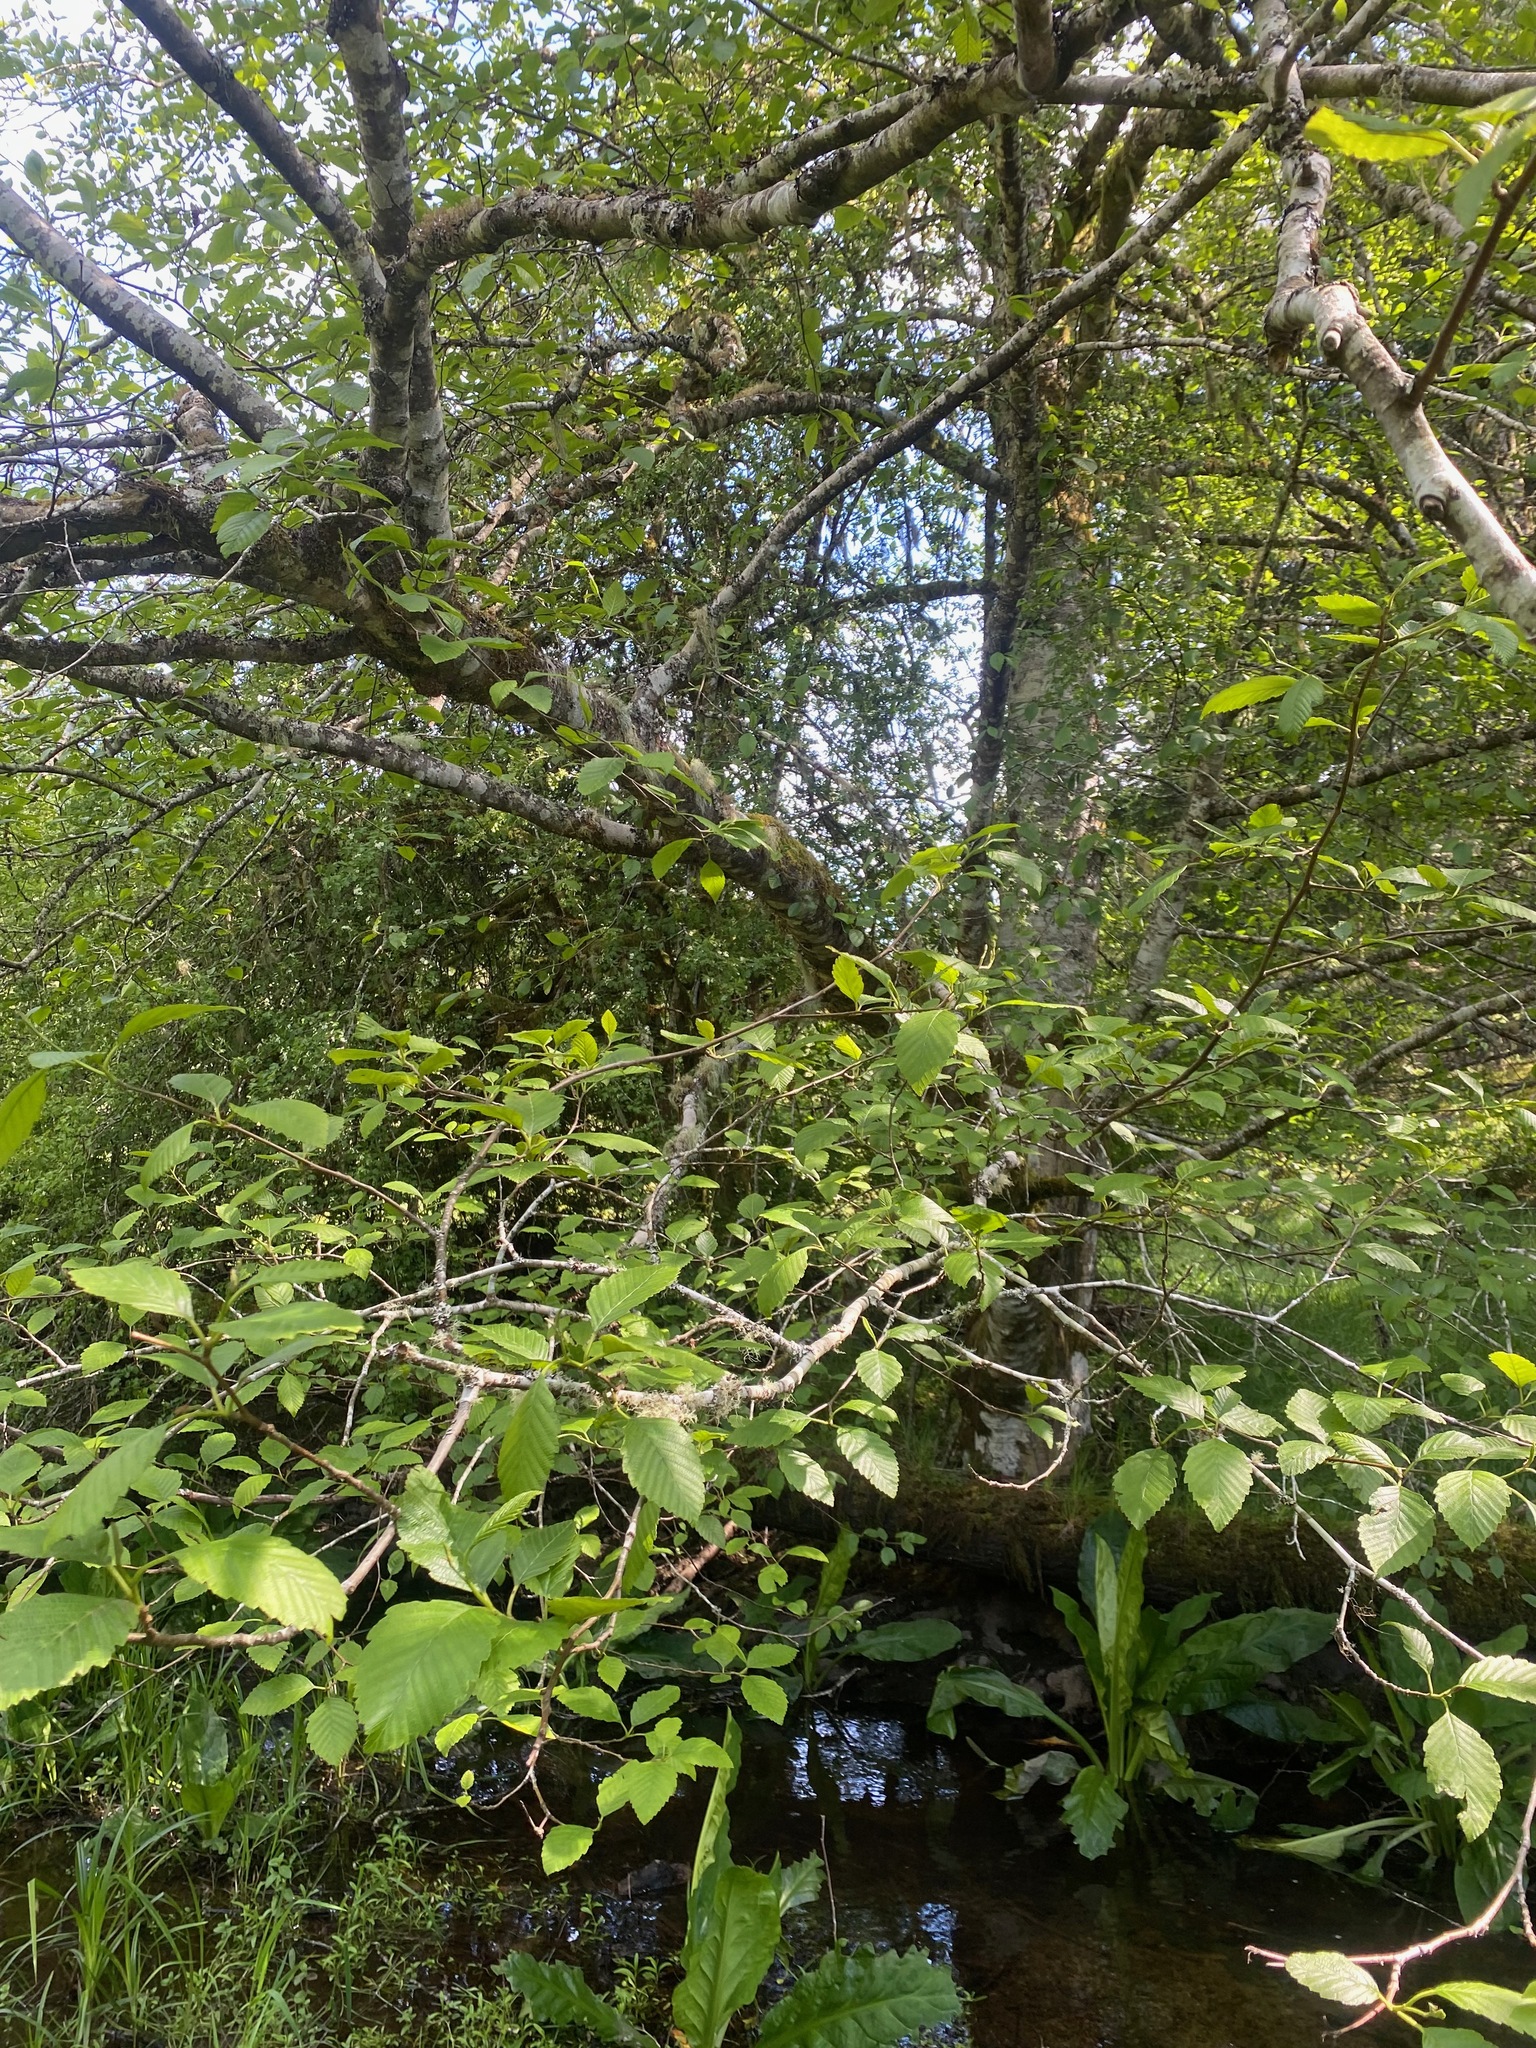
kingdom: Plantae
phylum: Tracheophyta
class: Magnoliopsida
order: Fagales
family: Betulaceae
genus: Alnus
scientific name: Alnus rubra
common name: Red alder
